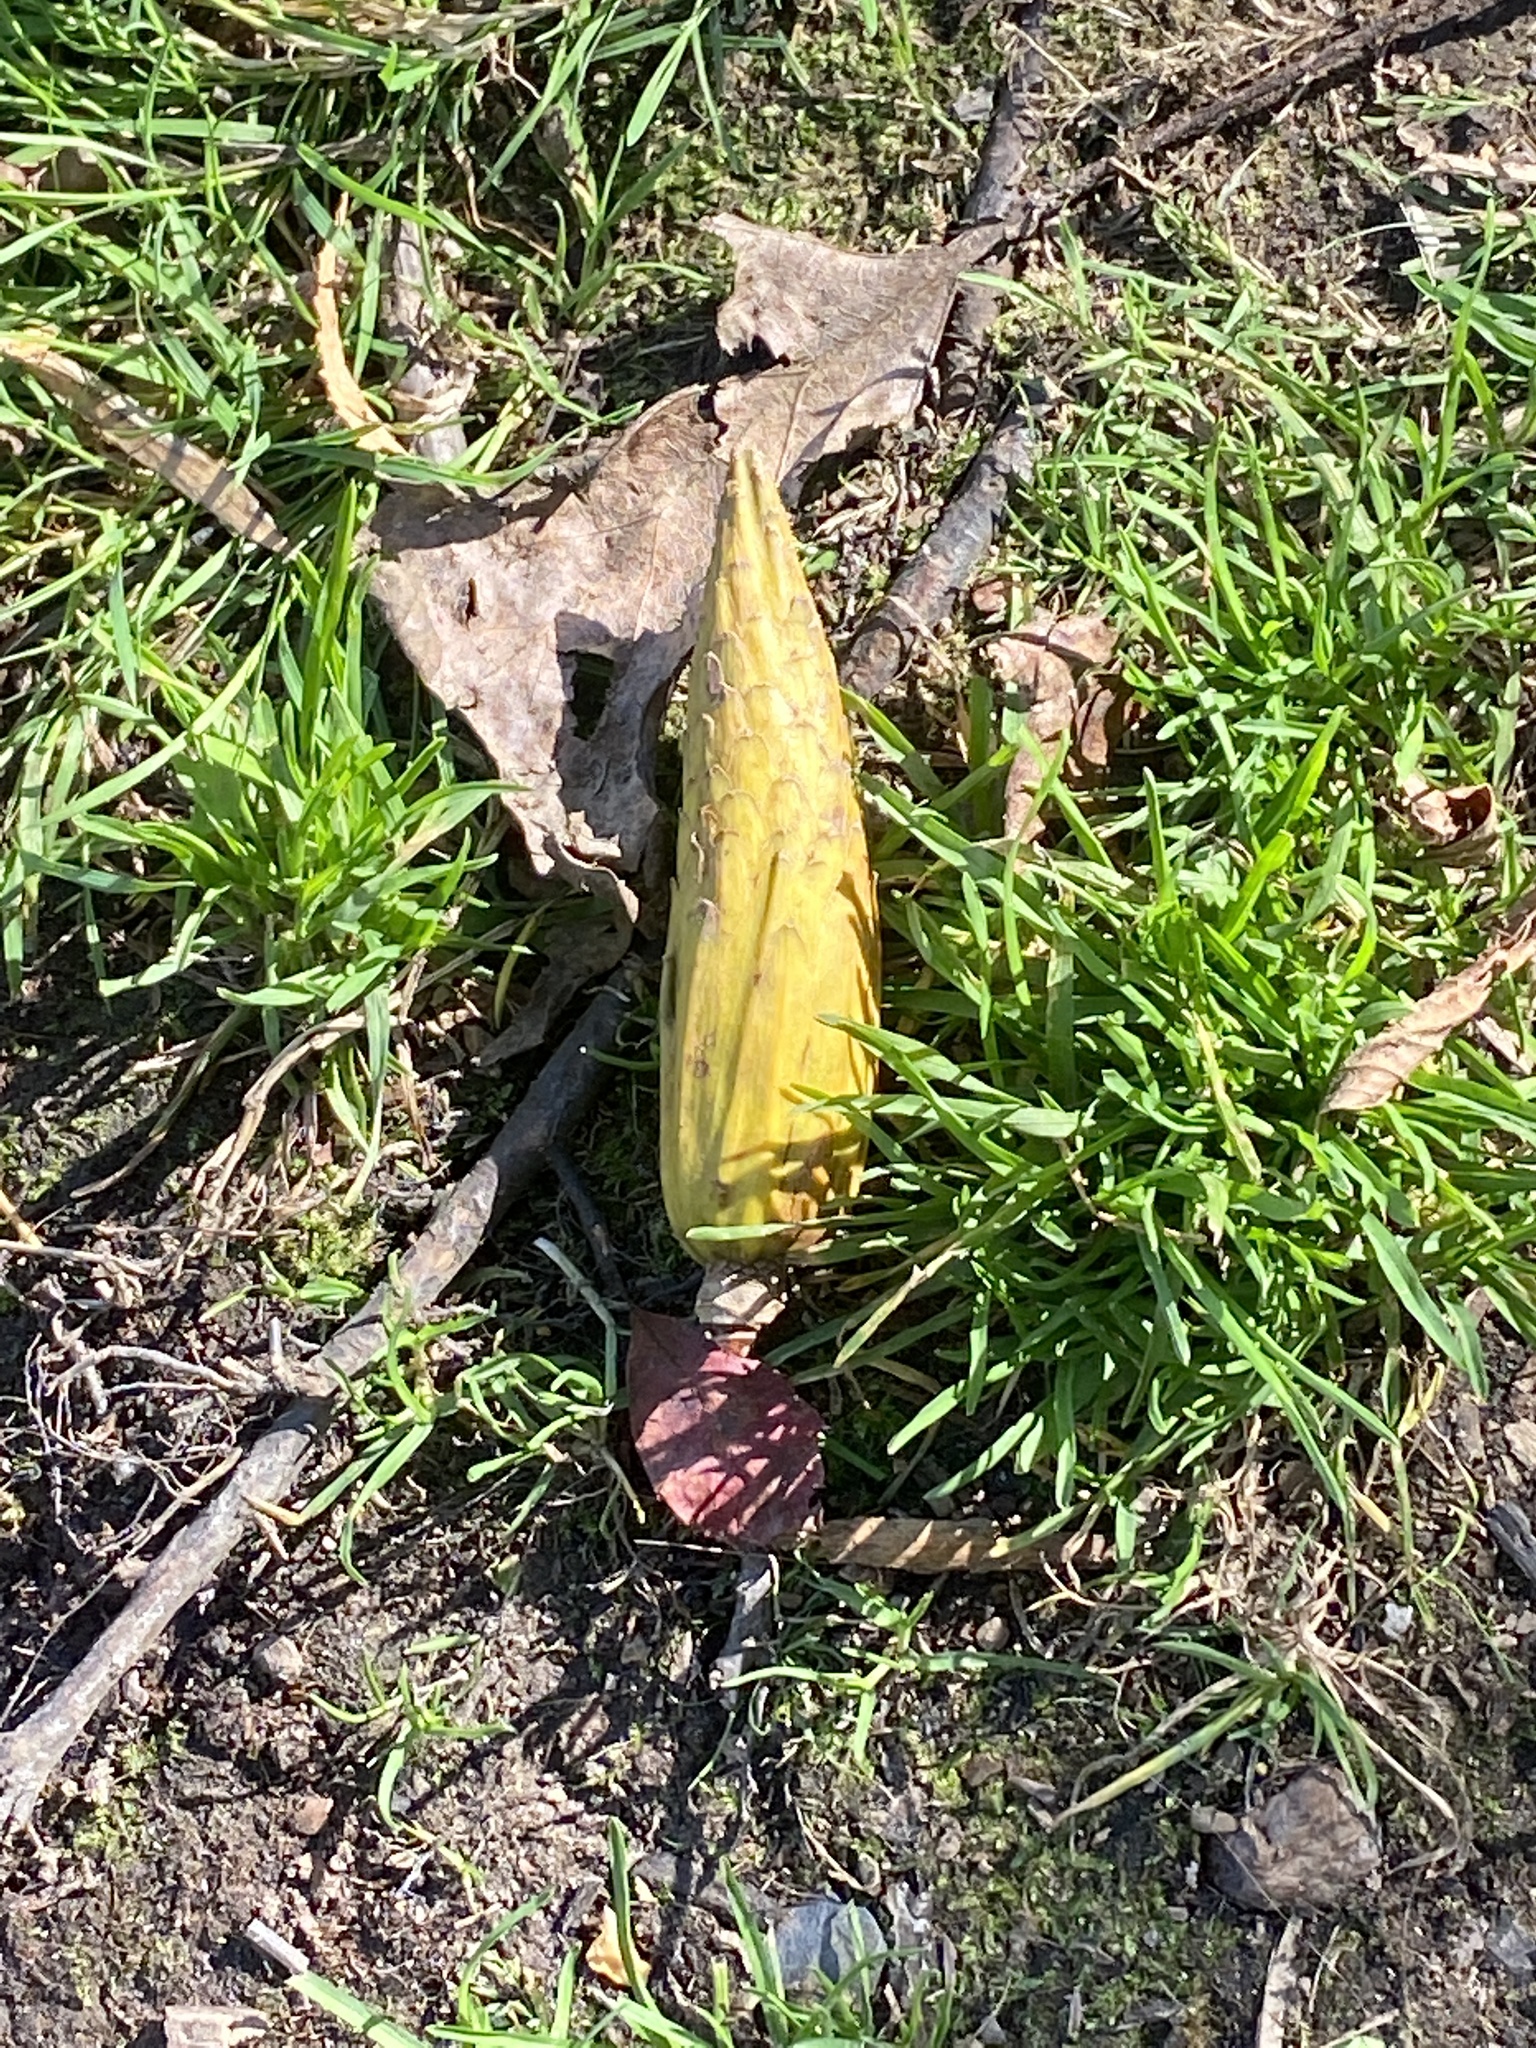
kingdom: Plantae
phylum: Tracheophyta
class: Magnoliopsida
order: Magnoliales
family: Magnoliaceae
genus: Liriodendron
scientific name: Liriodendron tulipifera
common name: Tulip tree
